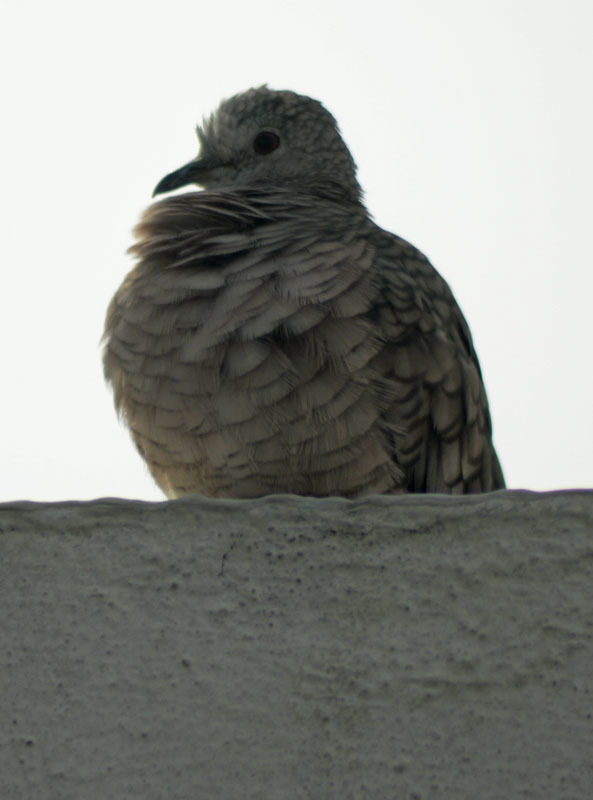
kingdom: Animalia
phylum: Chordata
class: Aves
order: Columbiformes
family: Columbidae
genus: Columbina
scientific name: Columbina inca
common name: Inca dove
